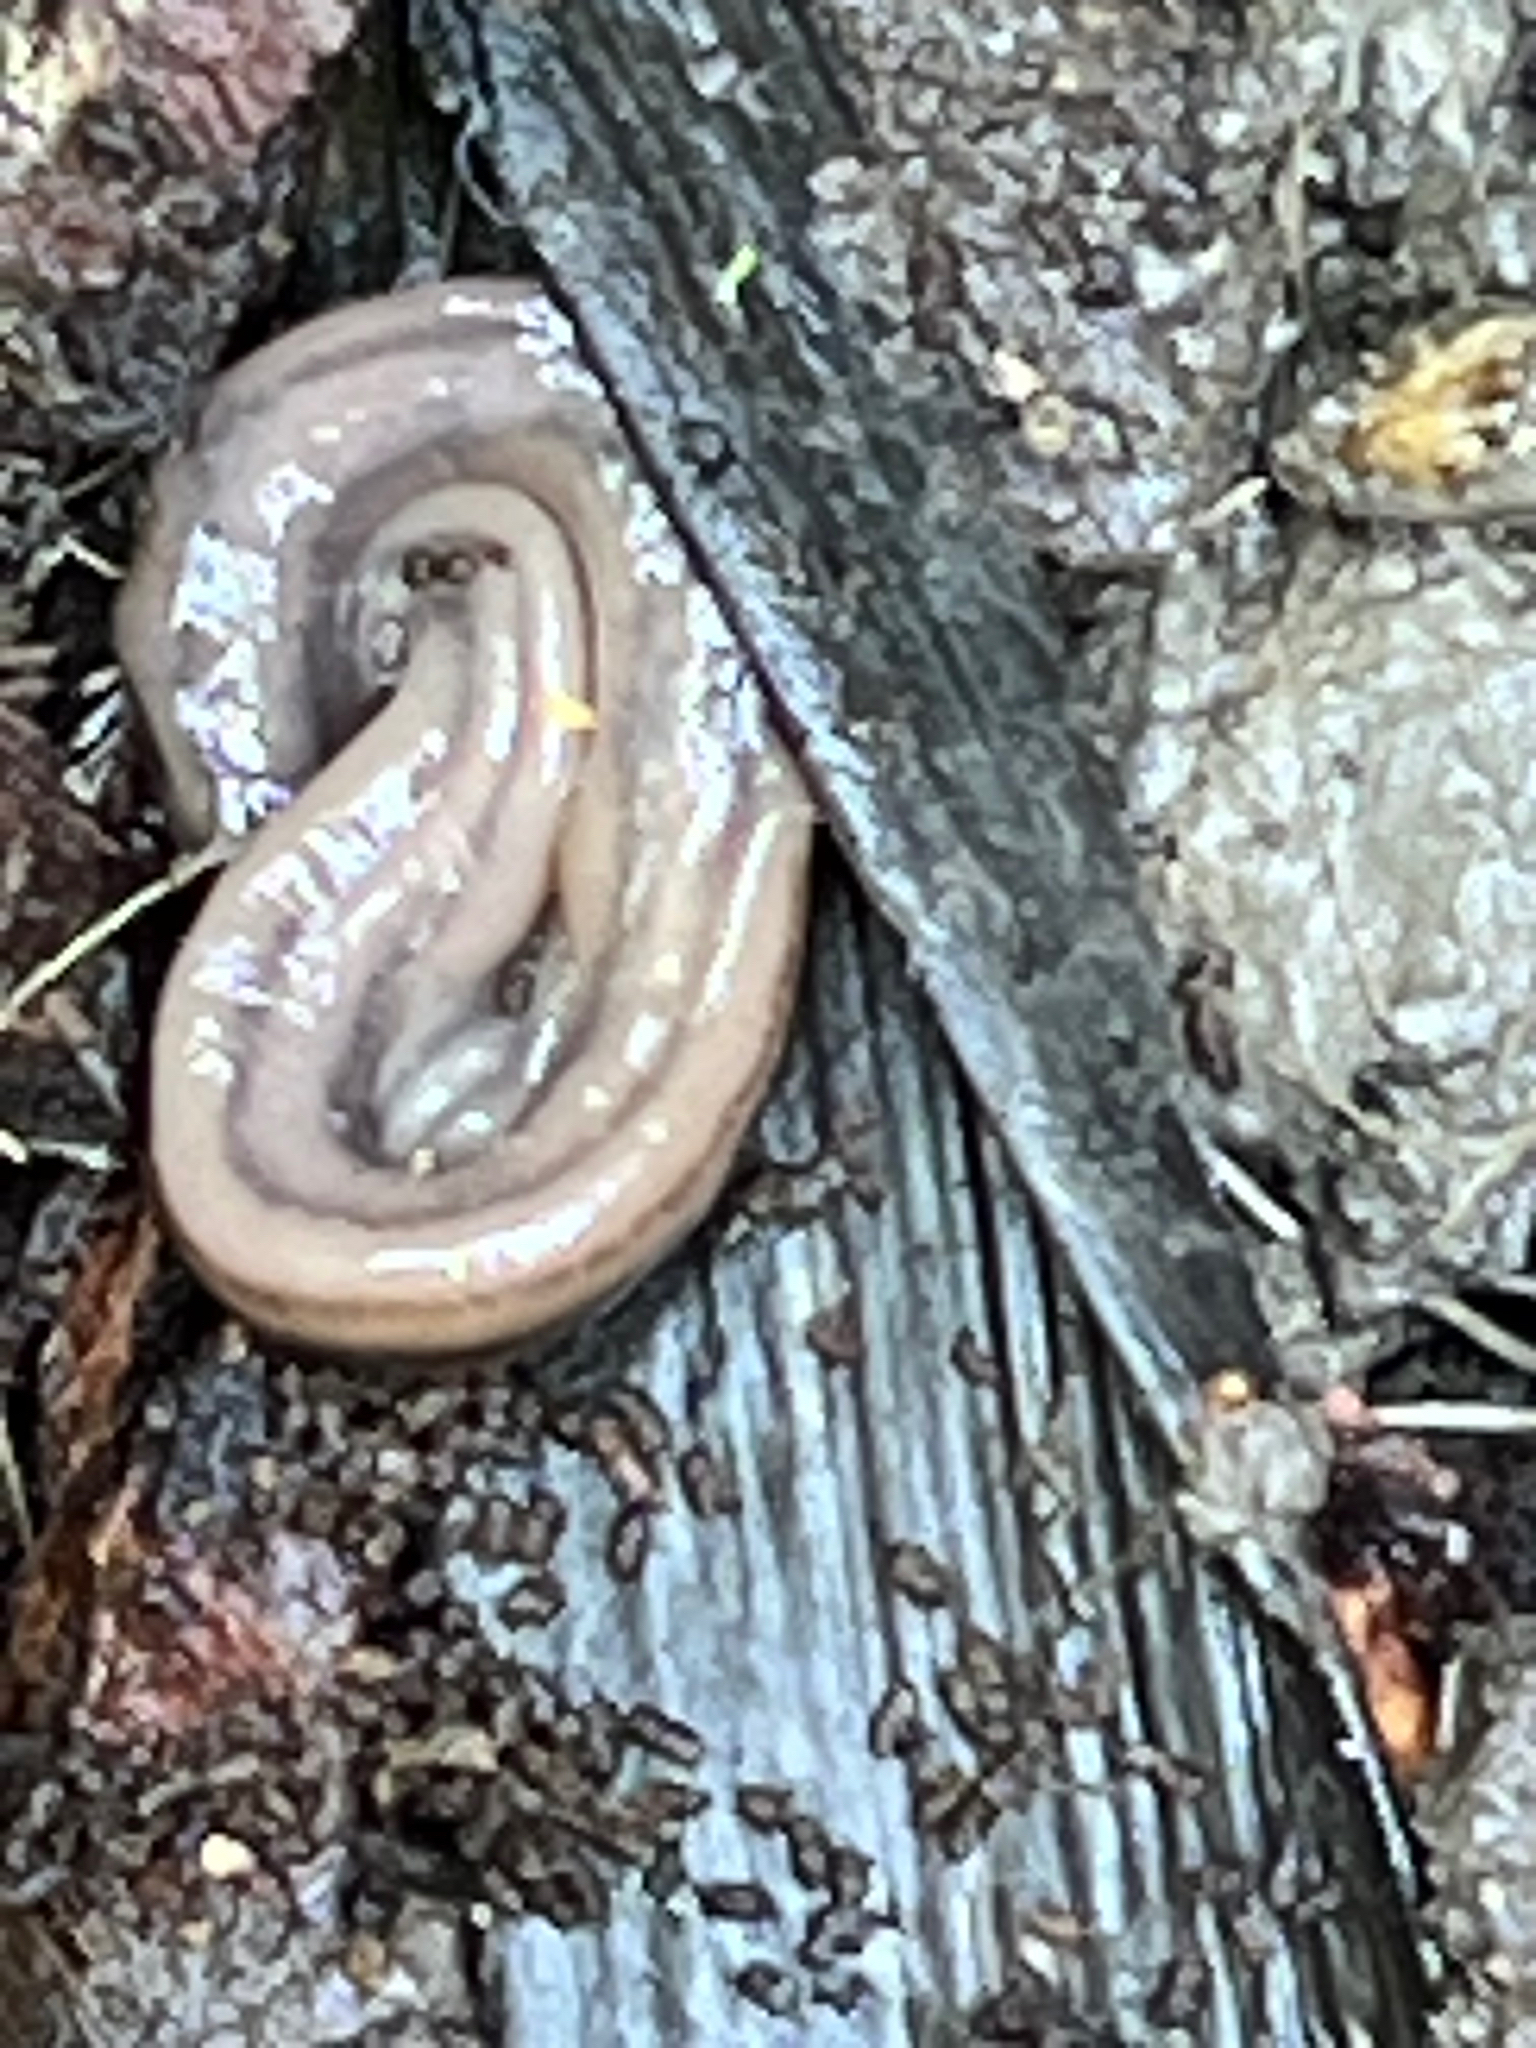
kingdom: Animalia
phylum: Platyhelminthes
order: Tricladida
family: Geoplanidae
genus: Bipalium
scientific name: Bipalium kewense
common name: Hammerhead flatworm
